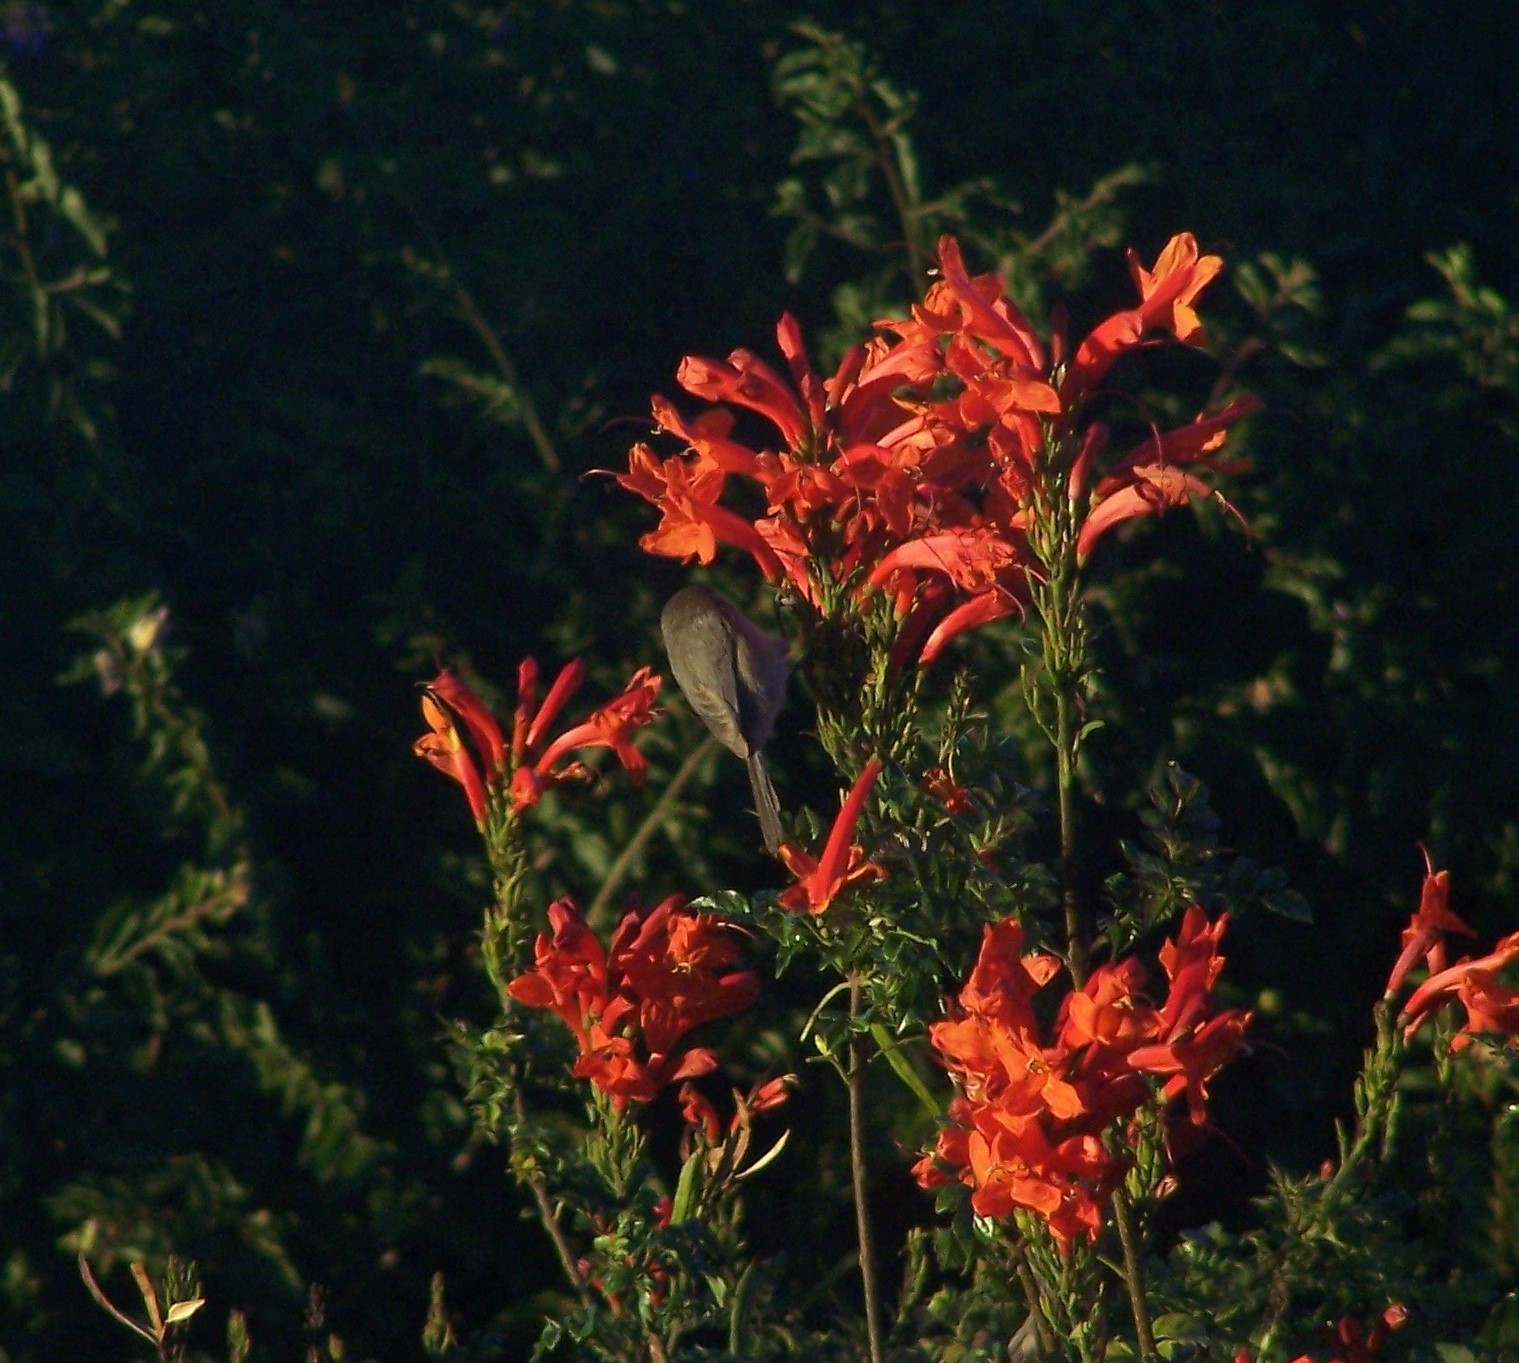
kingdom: Animalia
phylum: Chordata
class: Aves
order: Passeriformes
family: Aegithalidae
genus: Psaltriparus
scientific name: Psaltriparus minimus
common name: American bushtit
